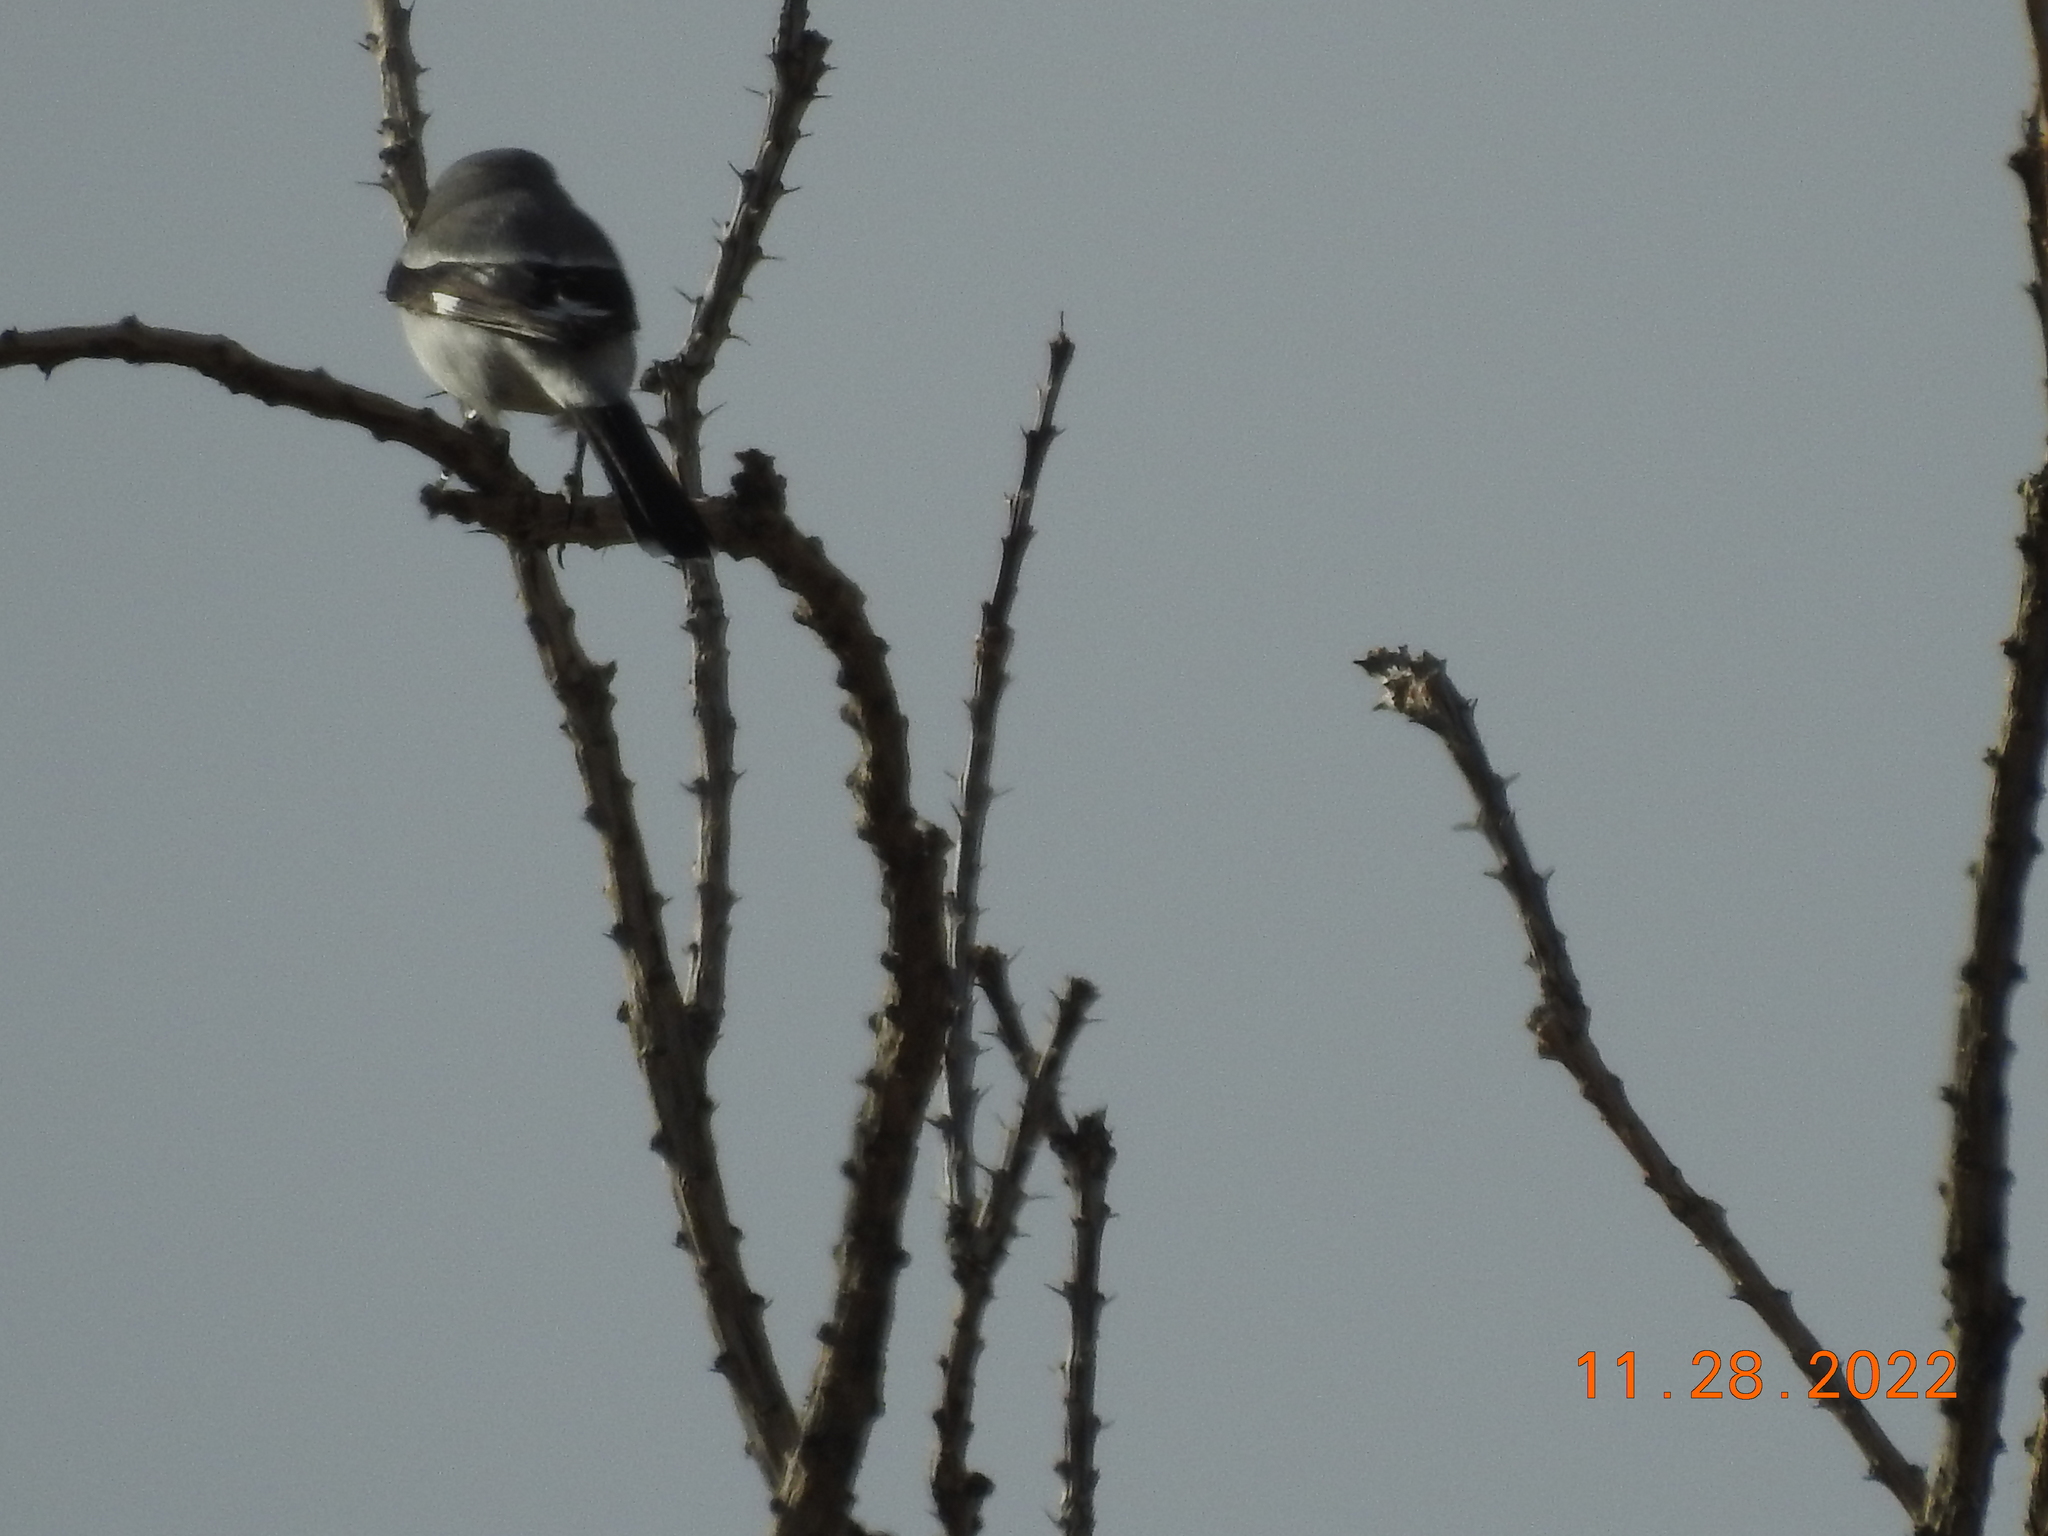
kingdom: Animalia
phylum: Chordata
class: Aves
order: Passeriformes
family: Laniidae
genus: Lanius
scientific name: Lanius ludovicianus
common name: Loggerhead shrike
